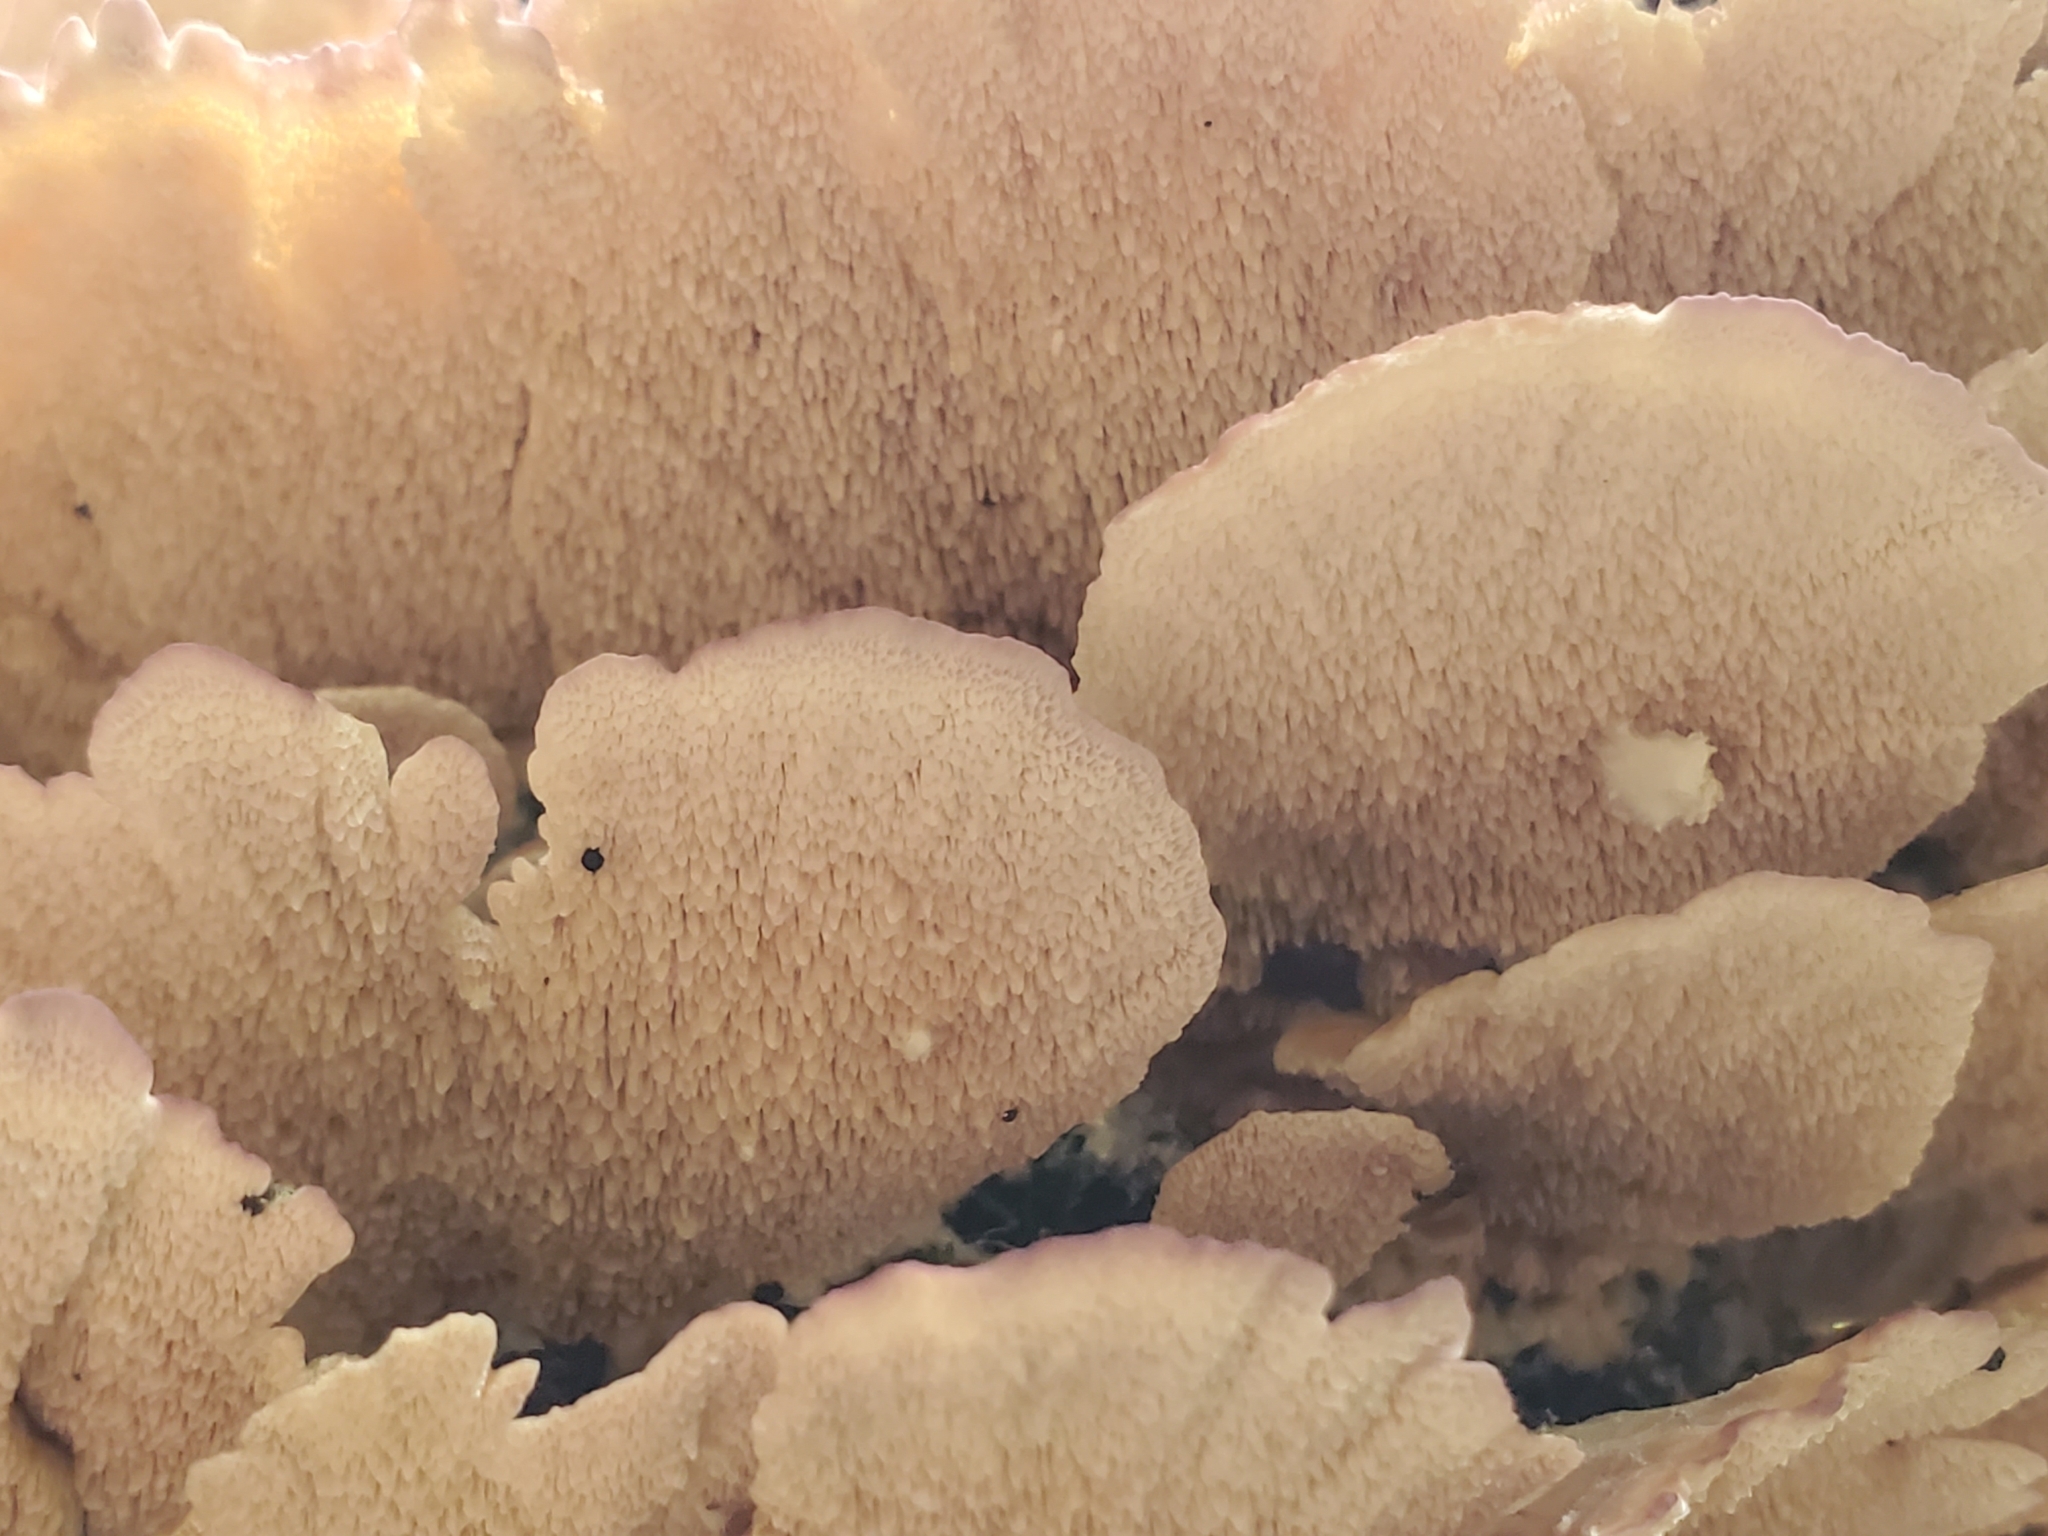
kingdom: Fungi
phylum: Basidiomycota
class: Agaricomycetes
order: Hymenochaetales
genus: Trichaptum
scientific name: Trichaptum biforme
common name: Violet-toothed polypore
